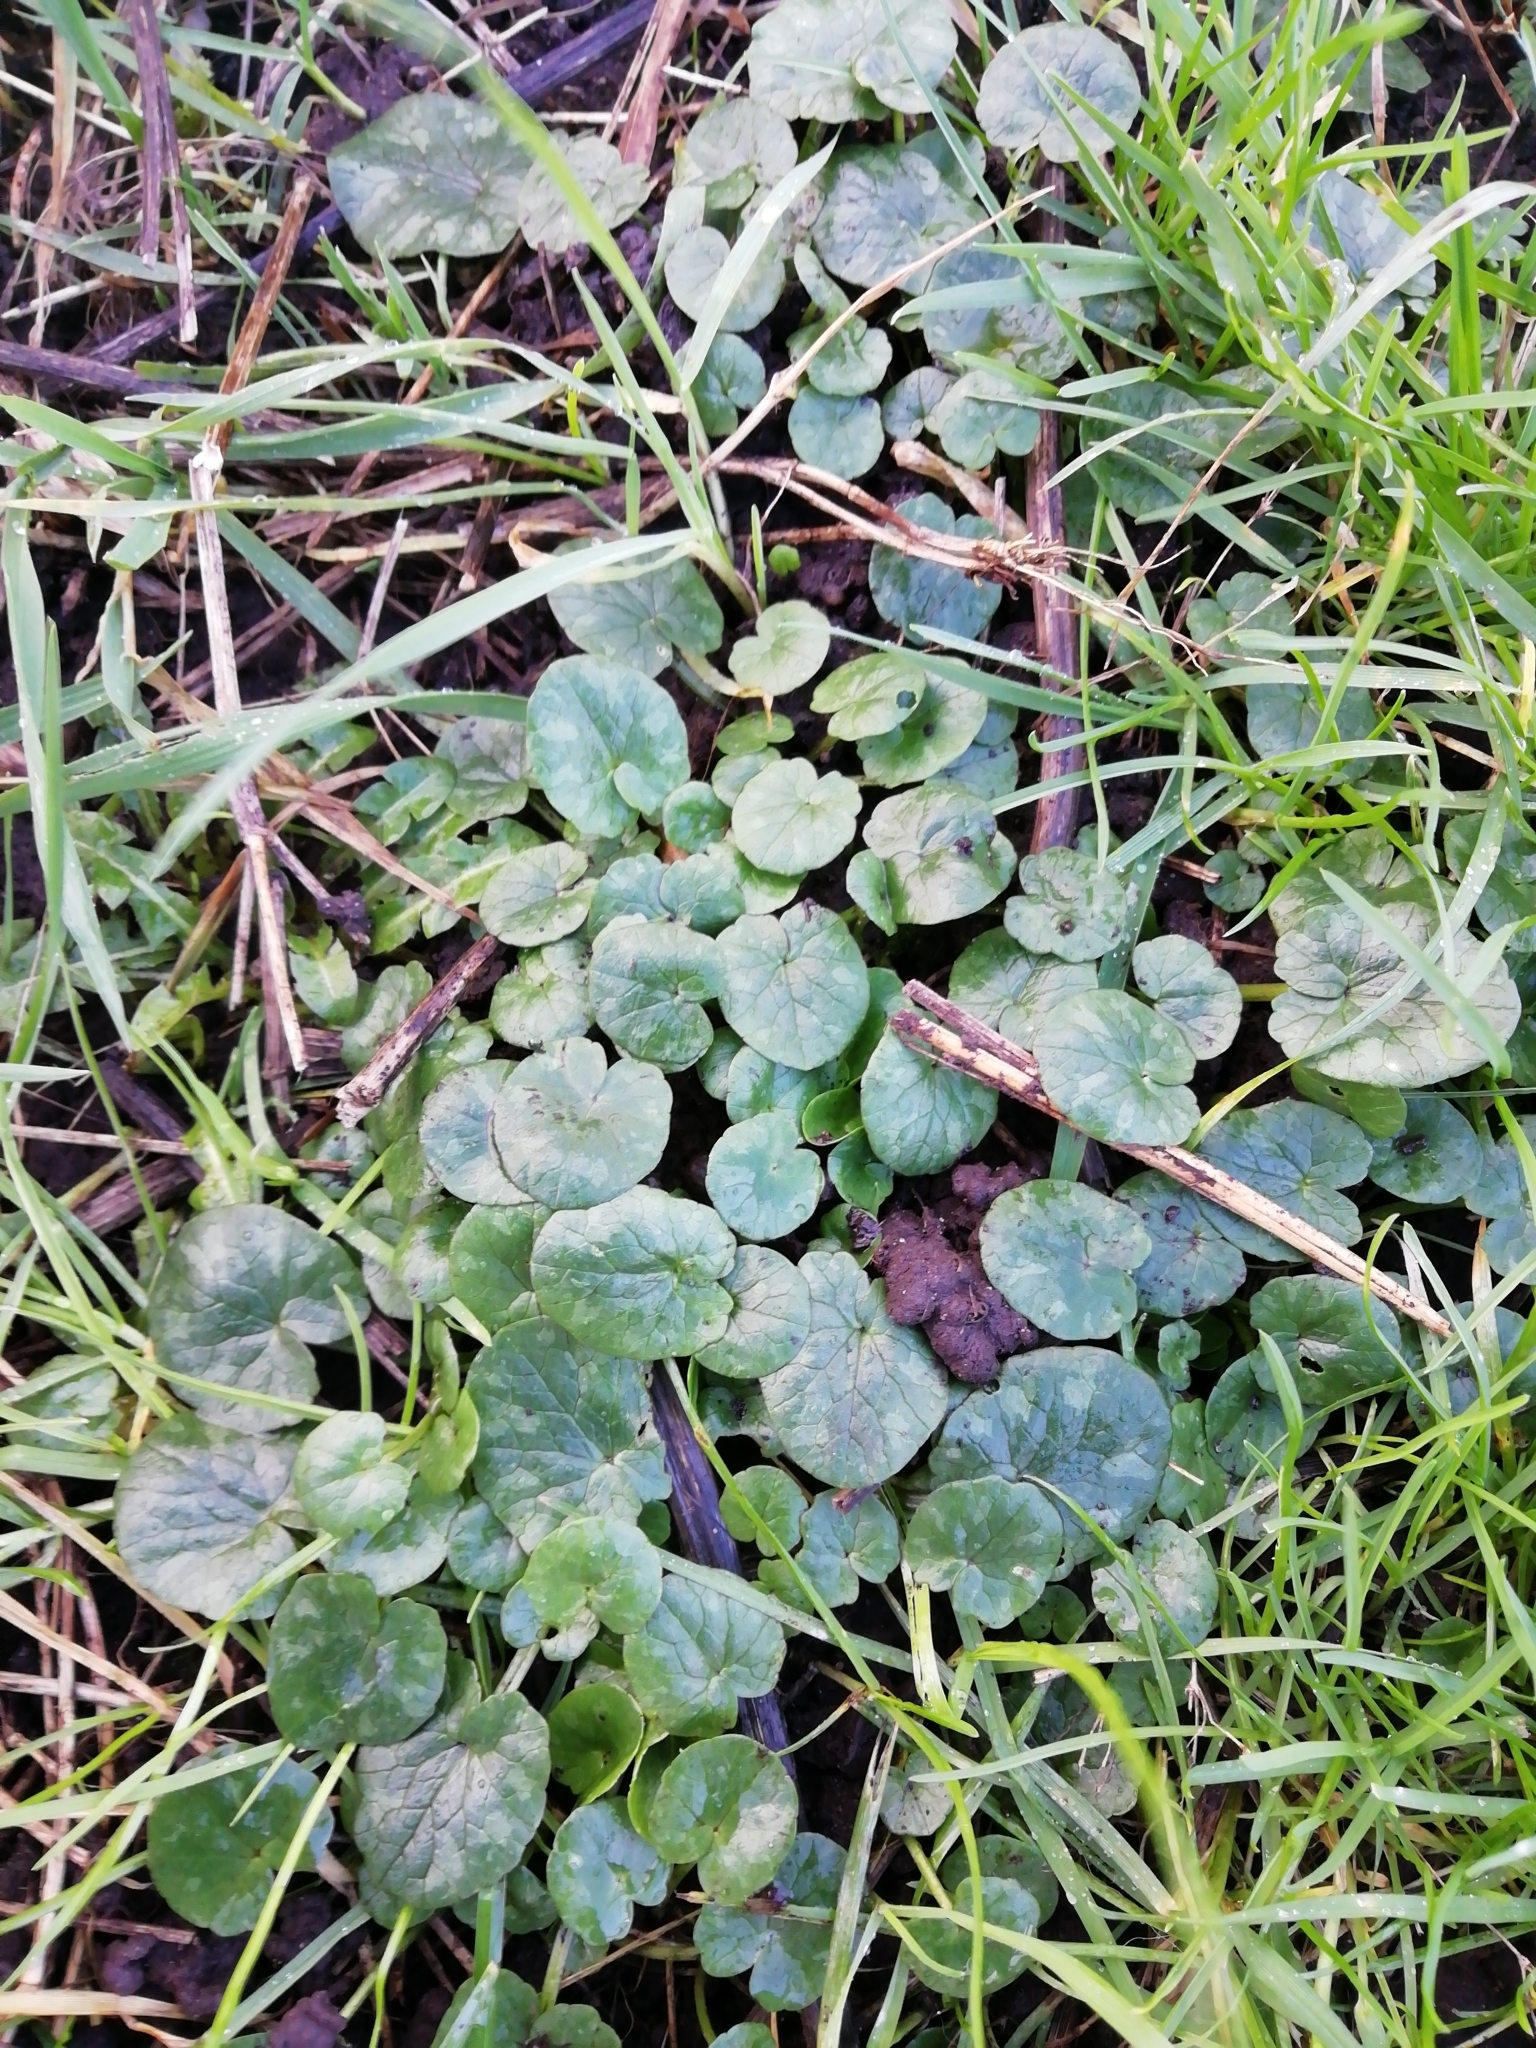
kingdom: Plantae
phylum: Tracheophyta
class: Magnoliopsida
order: Ranunculales
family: Ranunculaceae
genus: Ficaria
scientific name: Ficaria verna
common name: Lesser celandine
